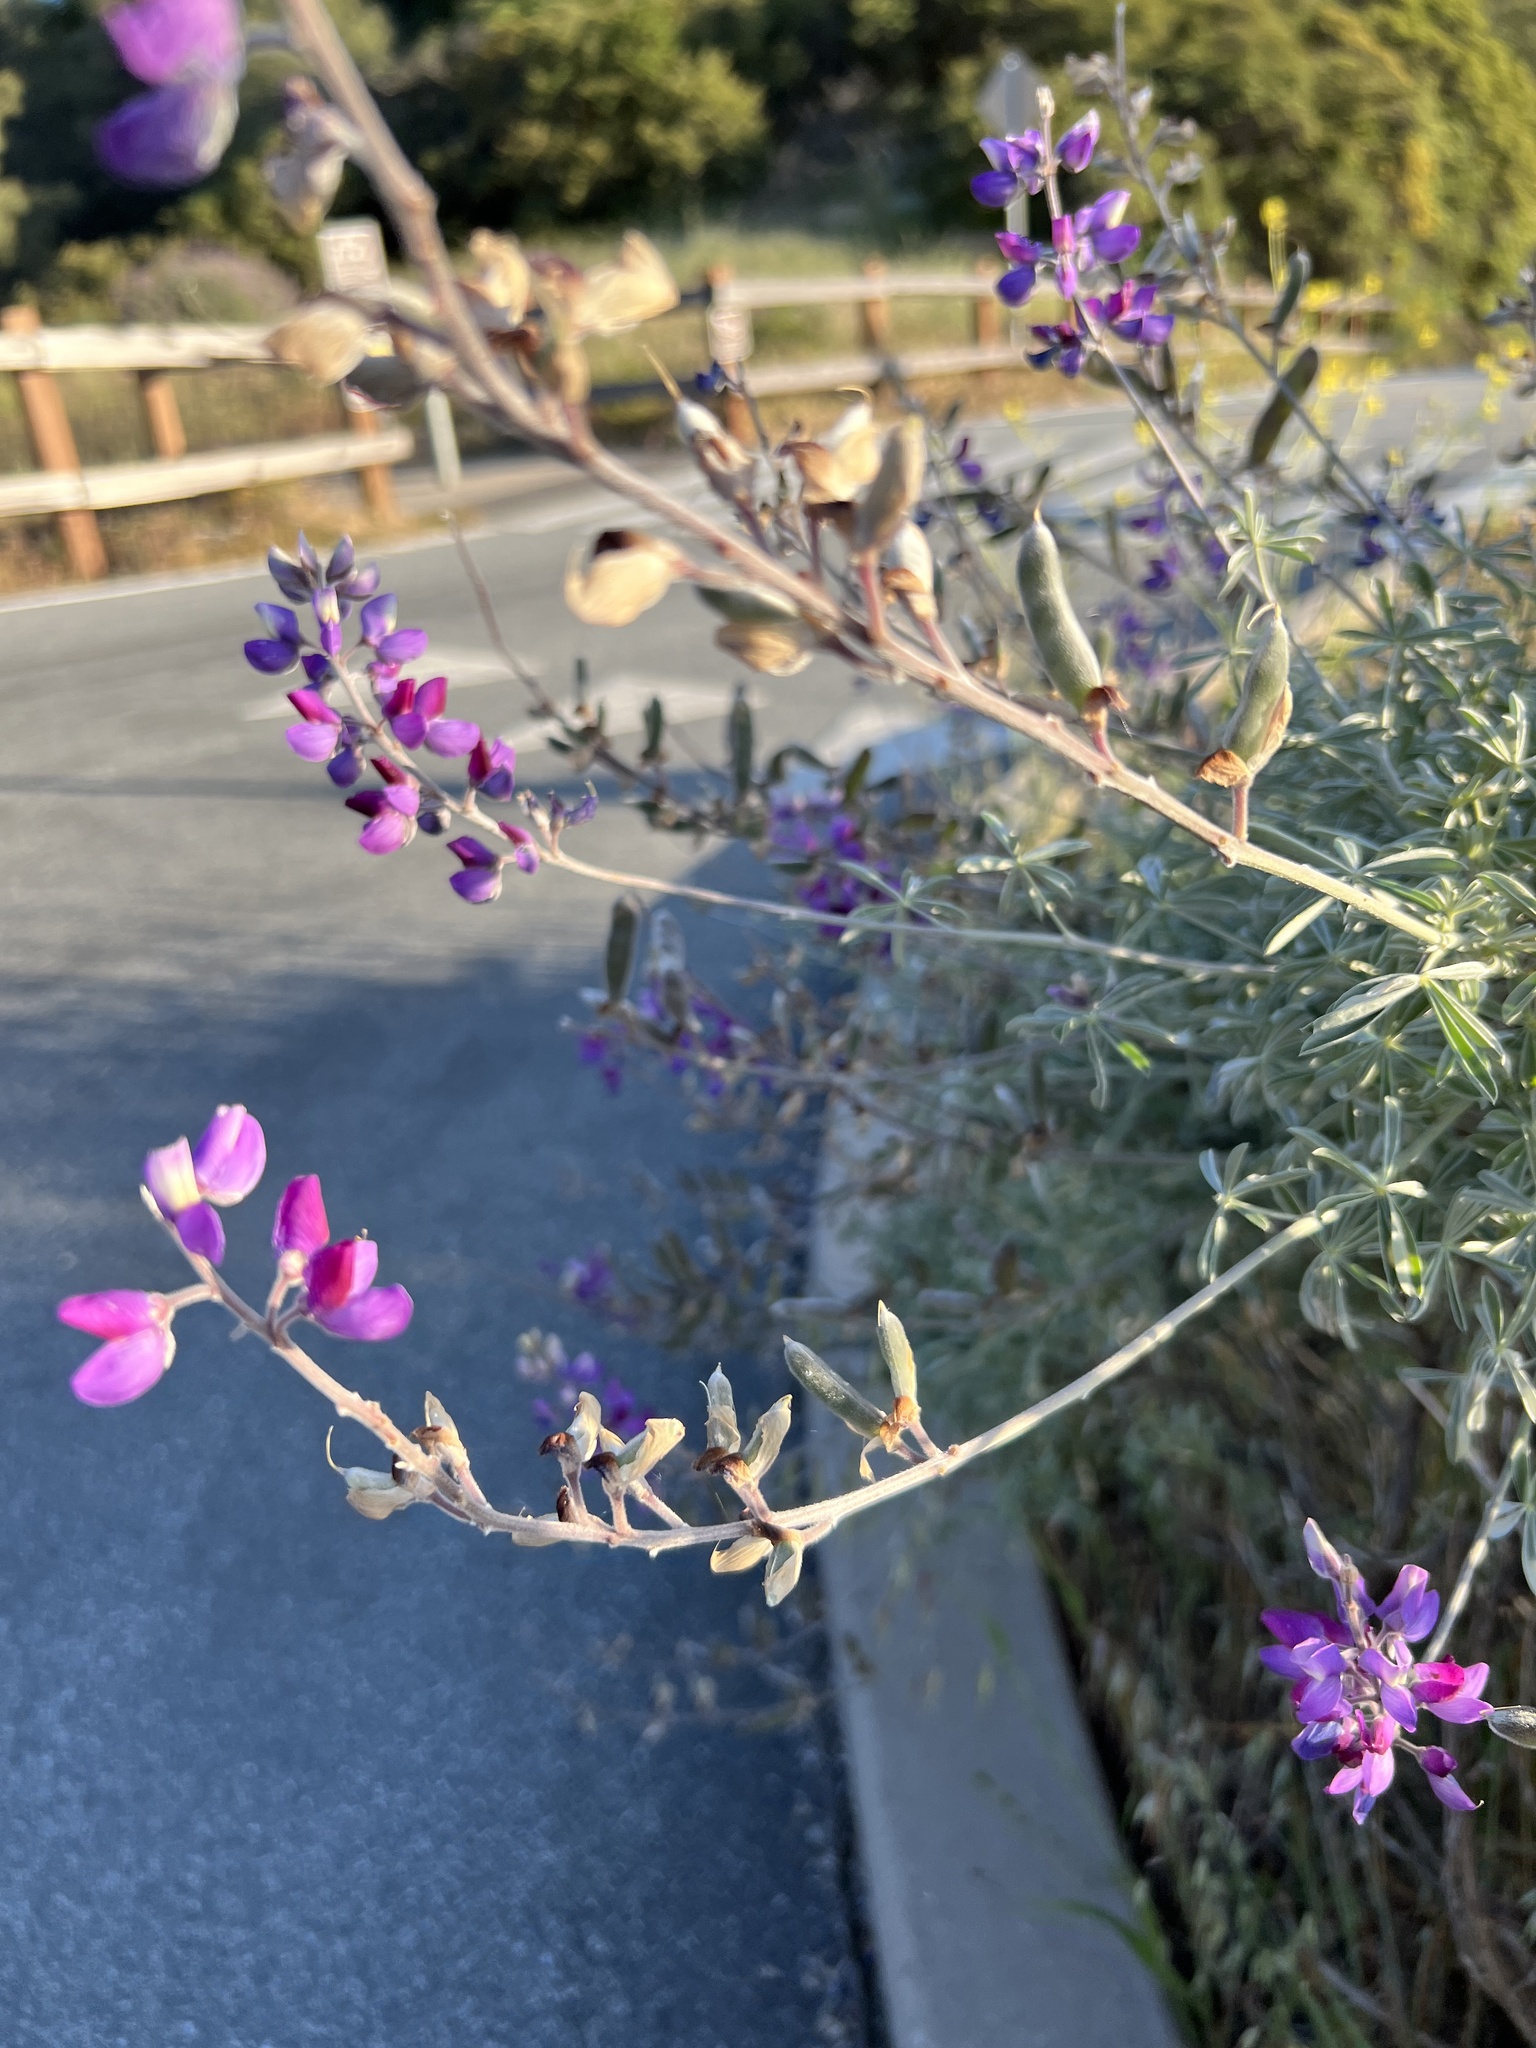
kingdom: Plantae
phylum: Tracheophyta
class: Magnoliopsida
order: Fabales
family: Fabaceae
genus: Lupinus
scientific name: Lupinus albifrons
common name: Foothill lupine
